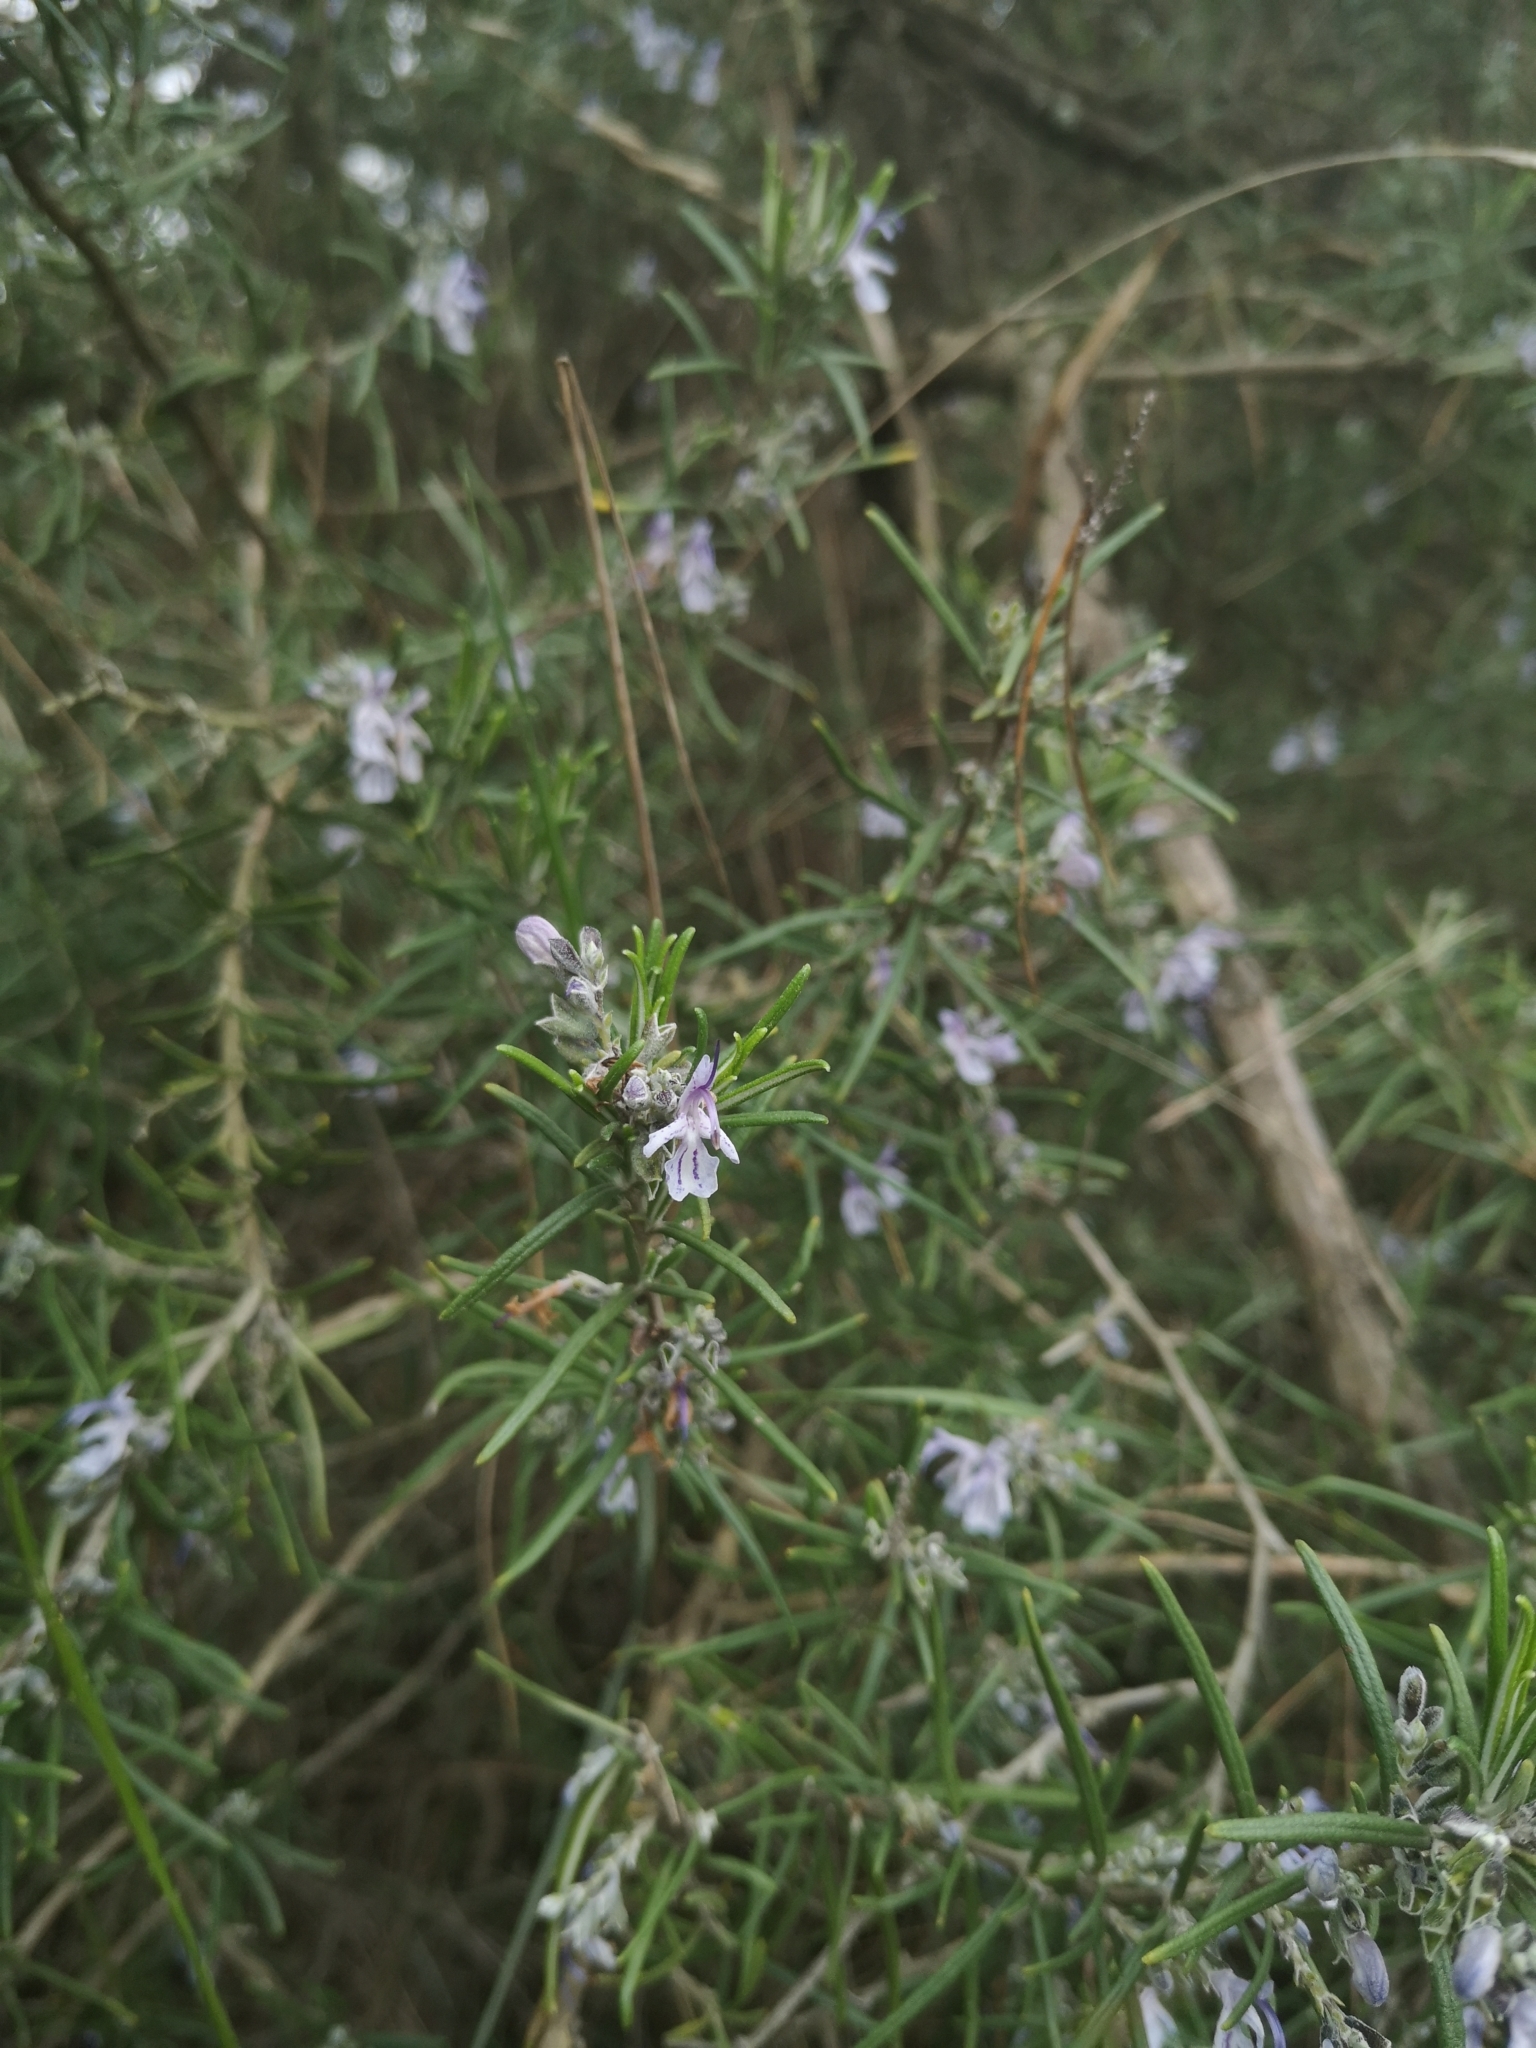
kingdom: Plantae
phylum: Tracheophyta
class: Magnoliopsida
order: Lamiales
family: Lamiaceae
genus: Salvia
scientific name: Salvia rosmarinus
